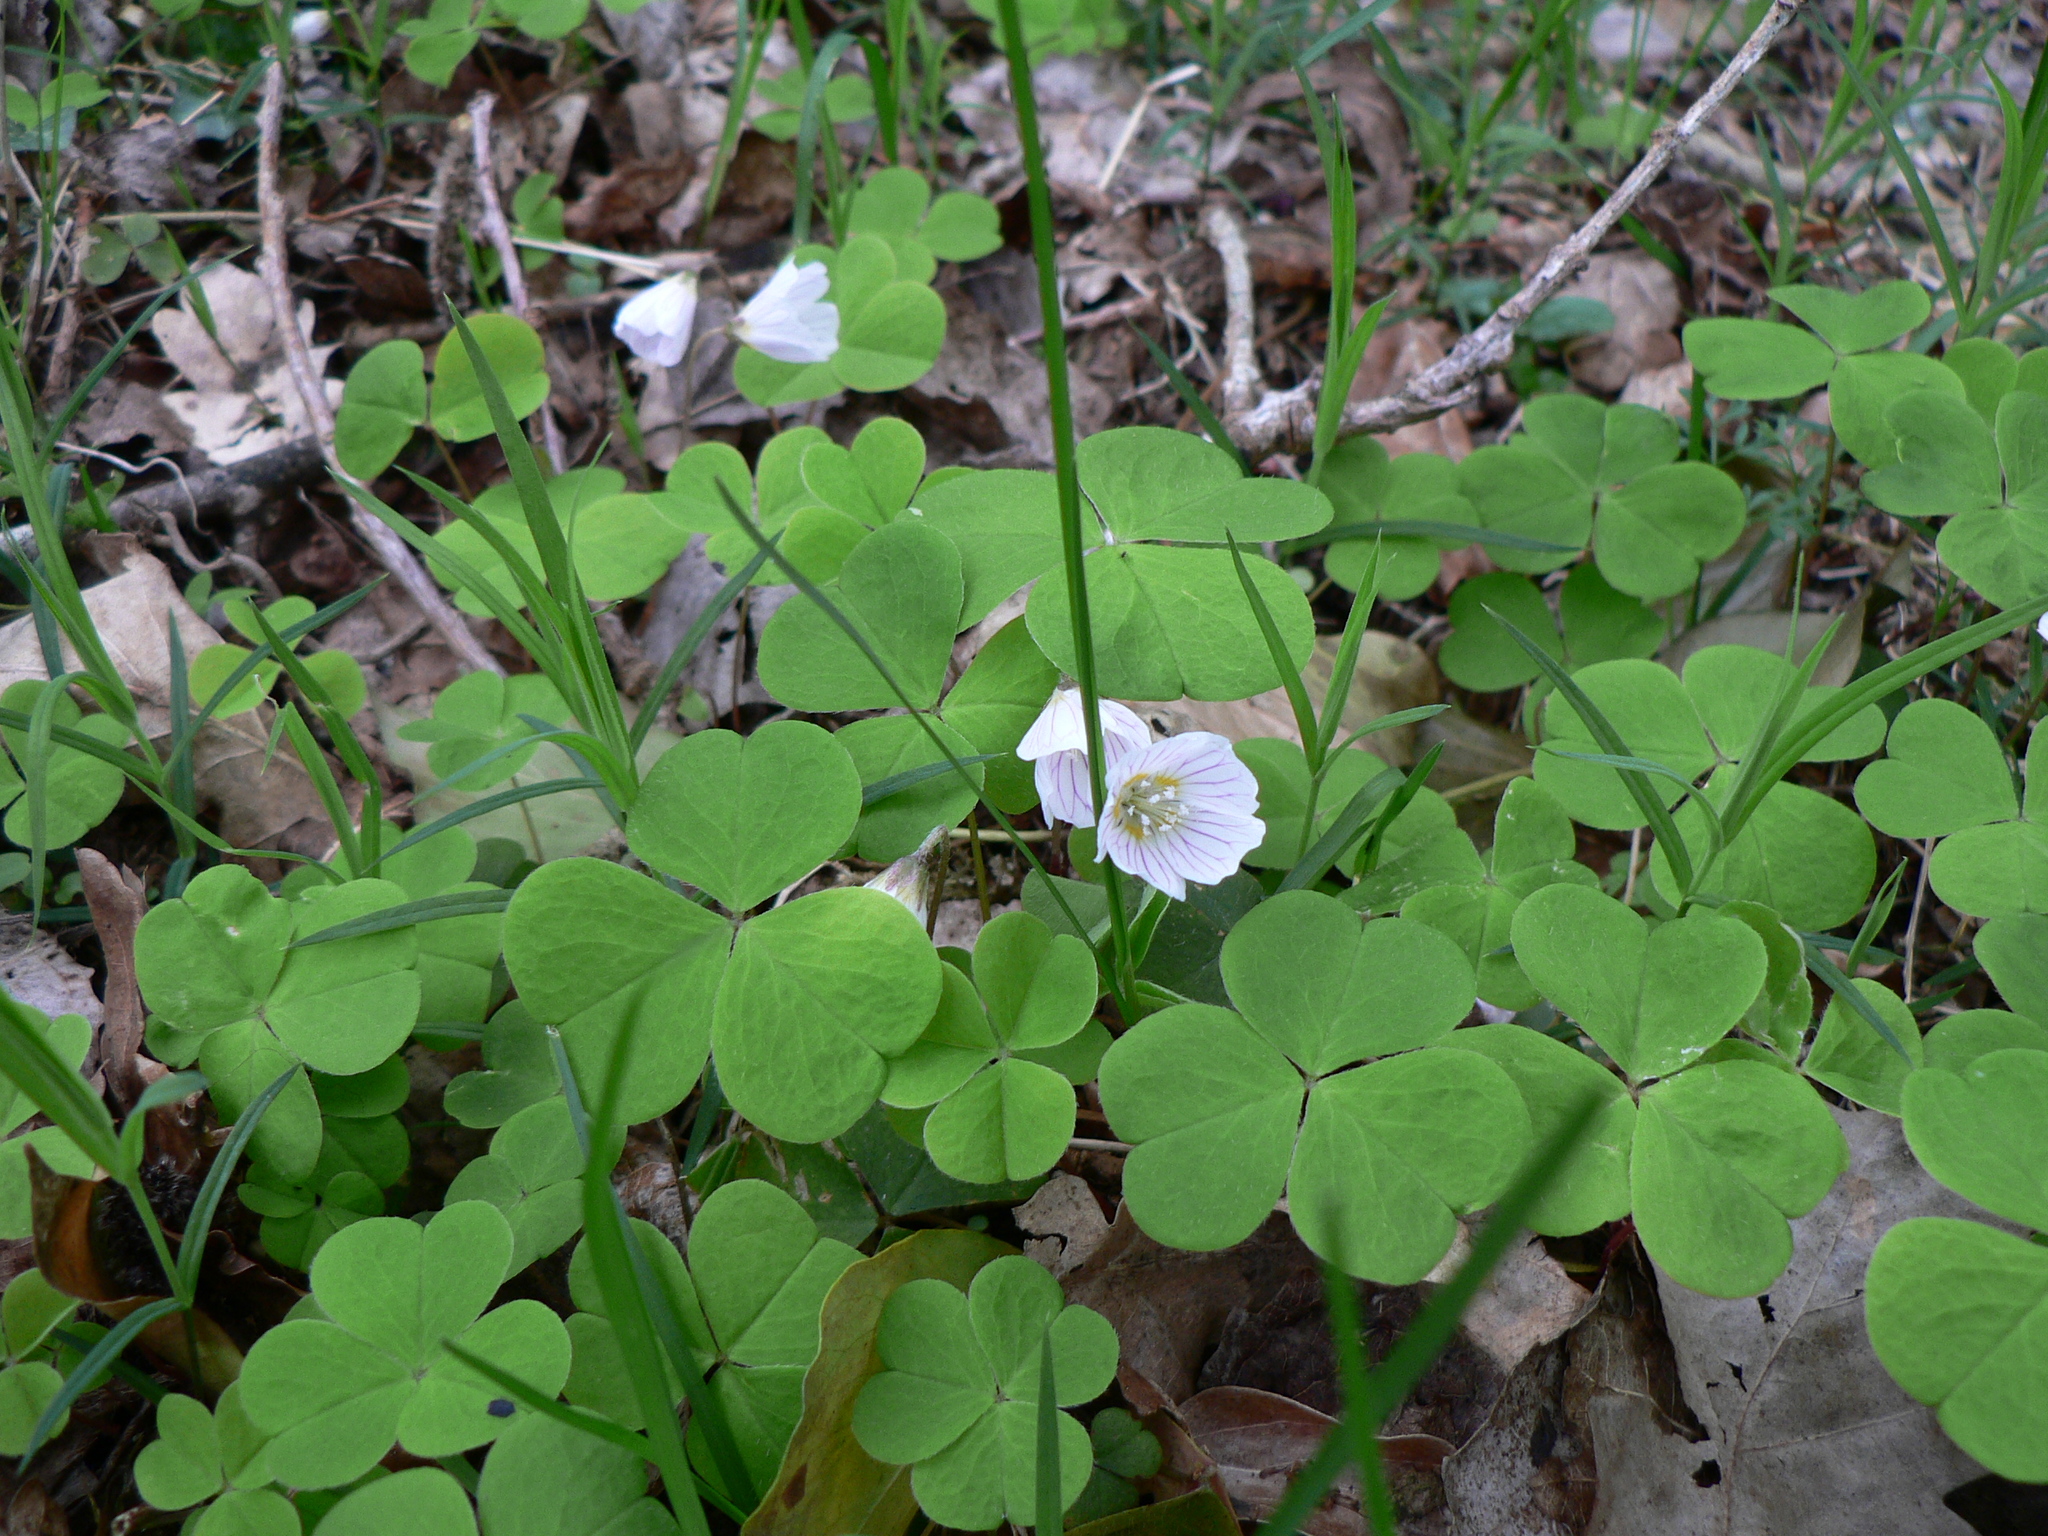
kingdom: Plantae
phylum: Tracheophyta
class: Magnoliopsida
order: Oxalidales
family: Oxalidaceae
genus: Oxalis
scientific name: Oxalis acetosella
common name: Wood-sorrel
